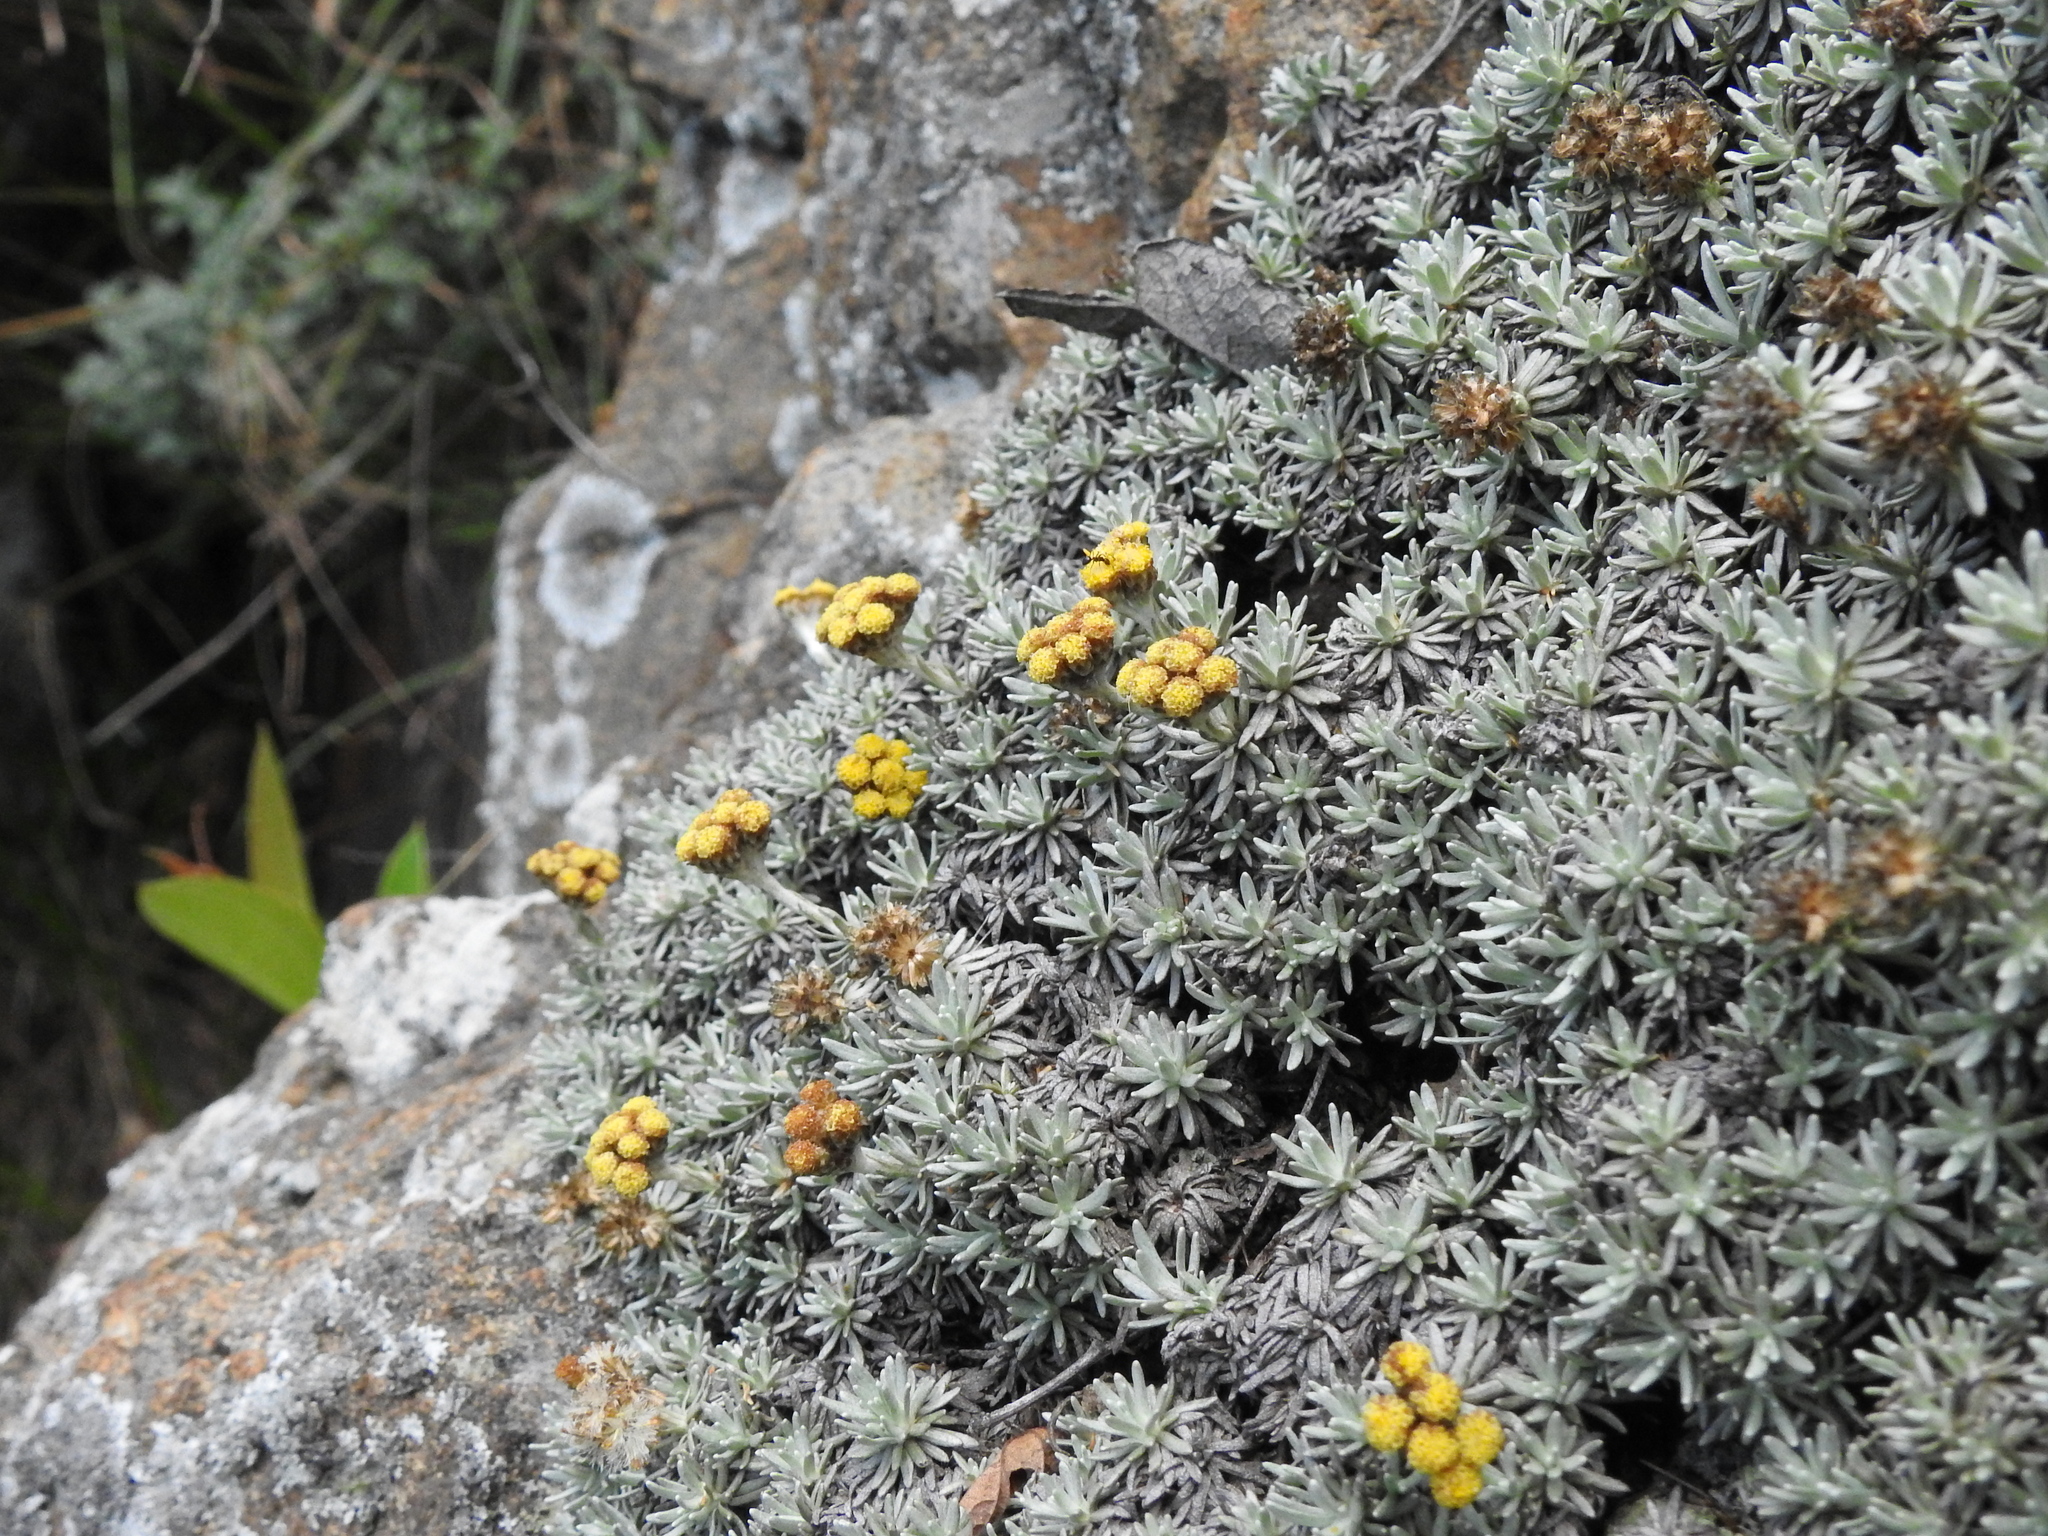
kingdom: Plantae
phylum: Tracheophyta
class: Magnoliopsida
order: Asterales
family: Asteraceae
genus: Helichrysum
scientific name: Helichrysum galpinii
